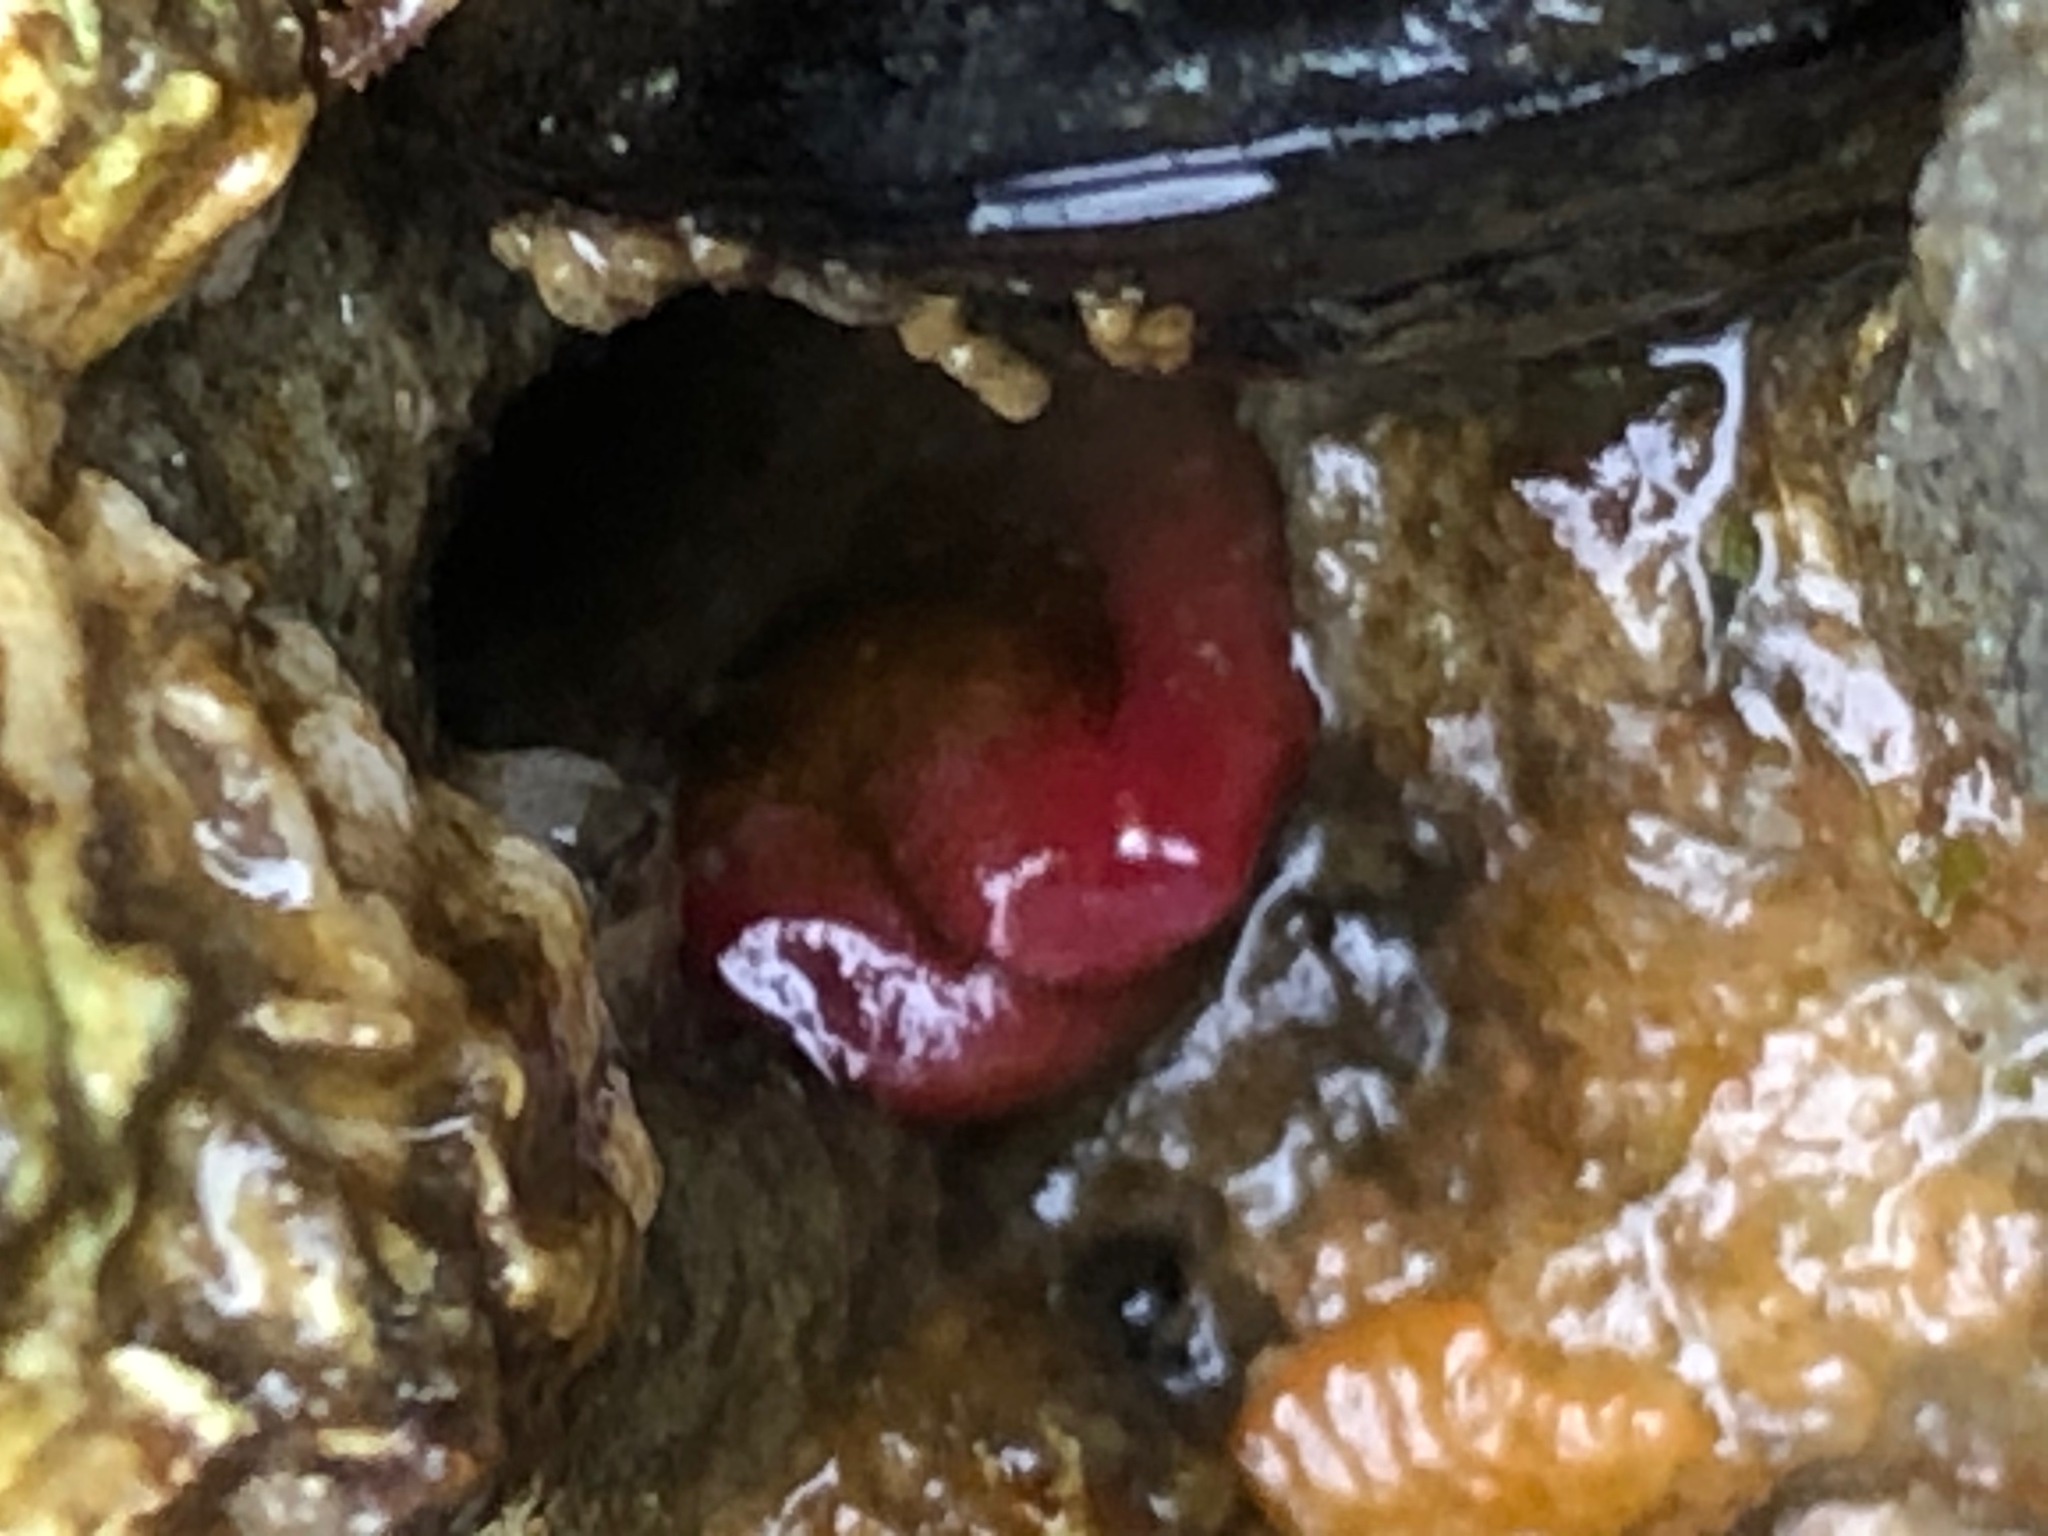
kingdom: Animalia
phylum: Mollusca
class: Bivalvia
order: Adapedonta
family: Hiatellidae
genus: Hiatella
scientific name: Hiatella arctica
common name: Arctic hiatella
